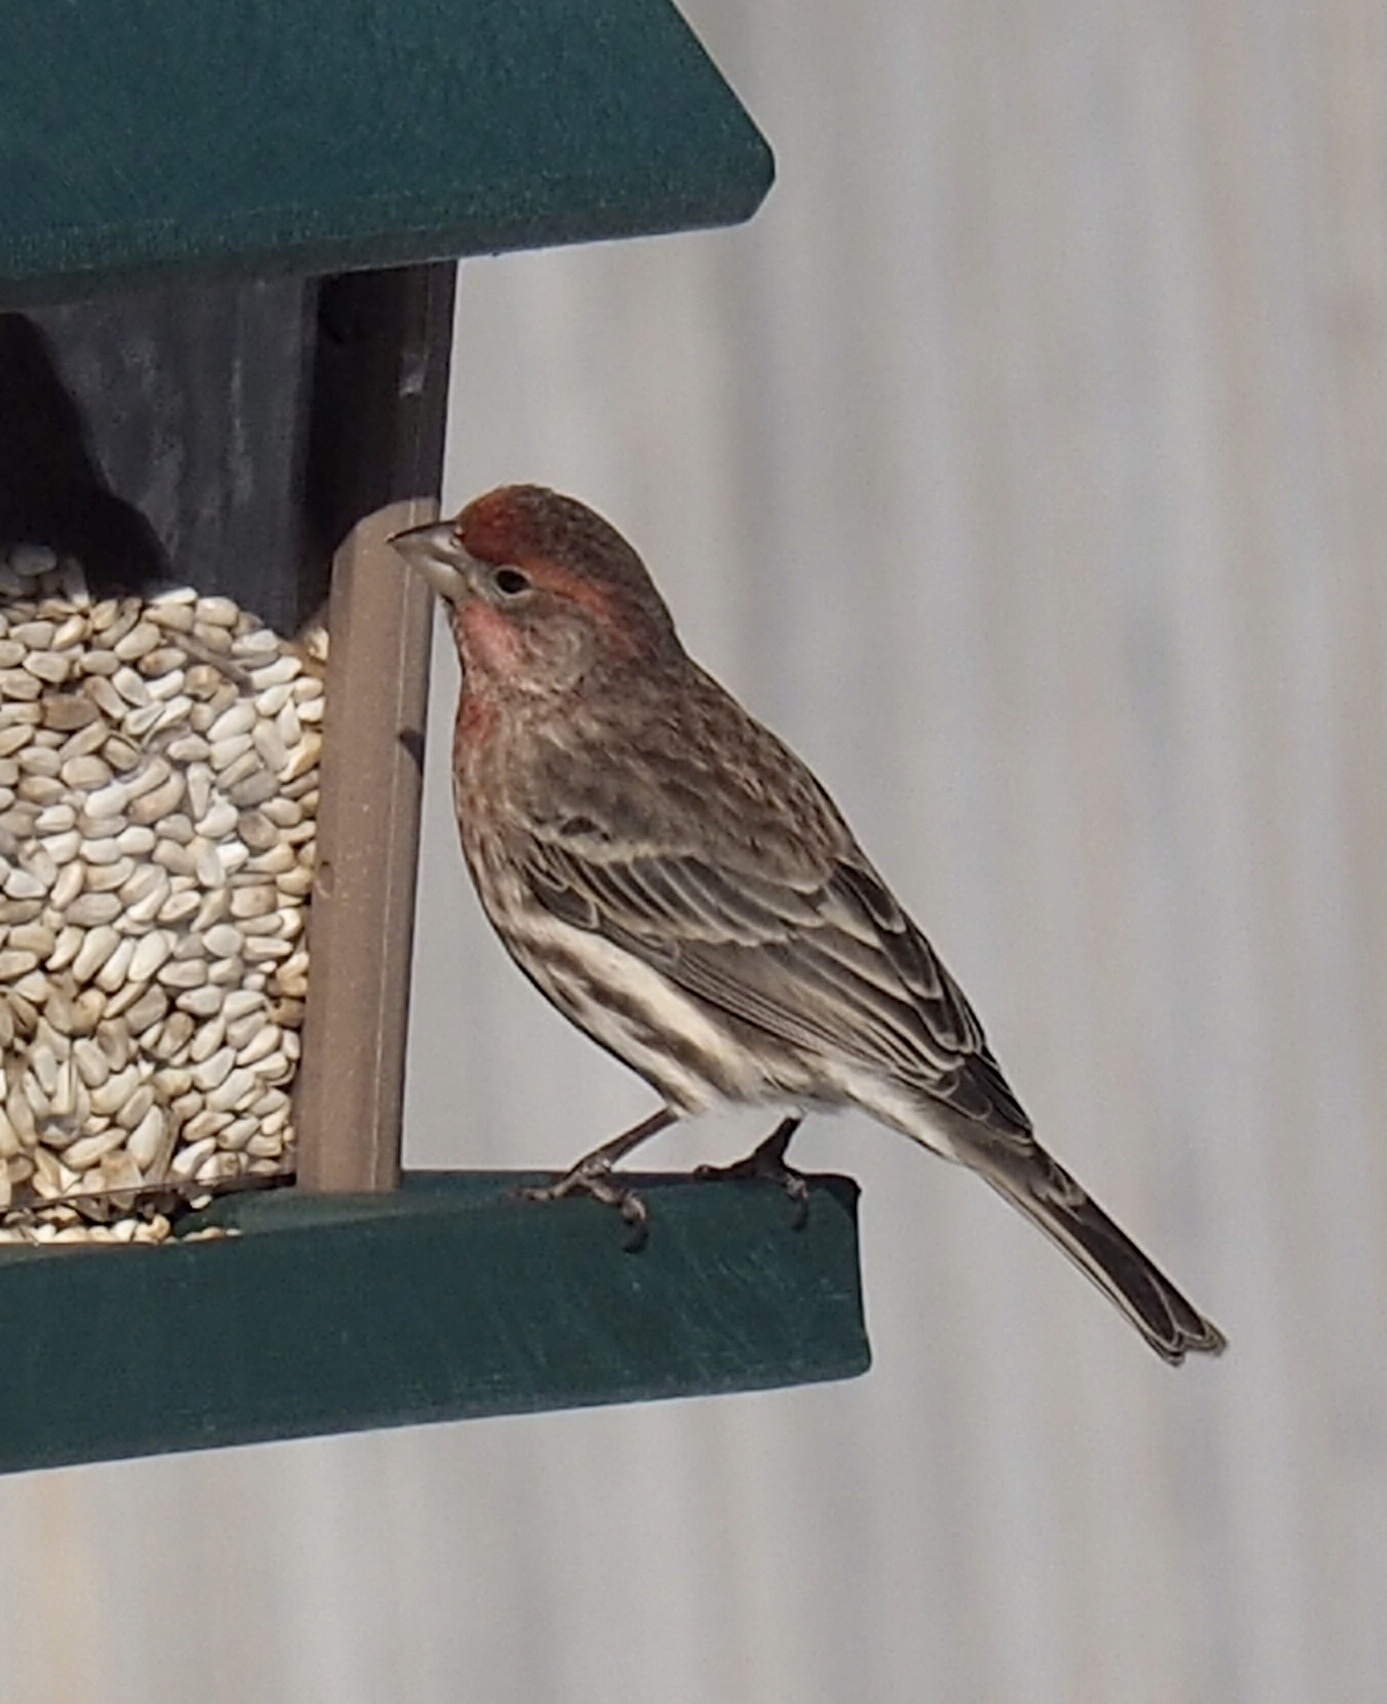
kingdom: Animalia
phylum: Chordata
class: Aves
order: Passeriformes
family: Fringillidae
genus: Haemorhous
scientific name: Haemorhous mexicanus
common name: House finch
